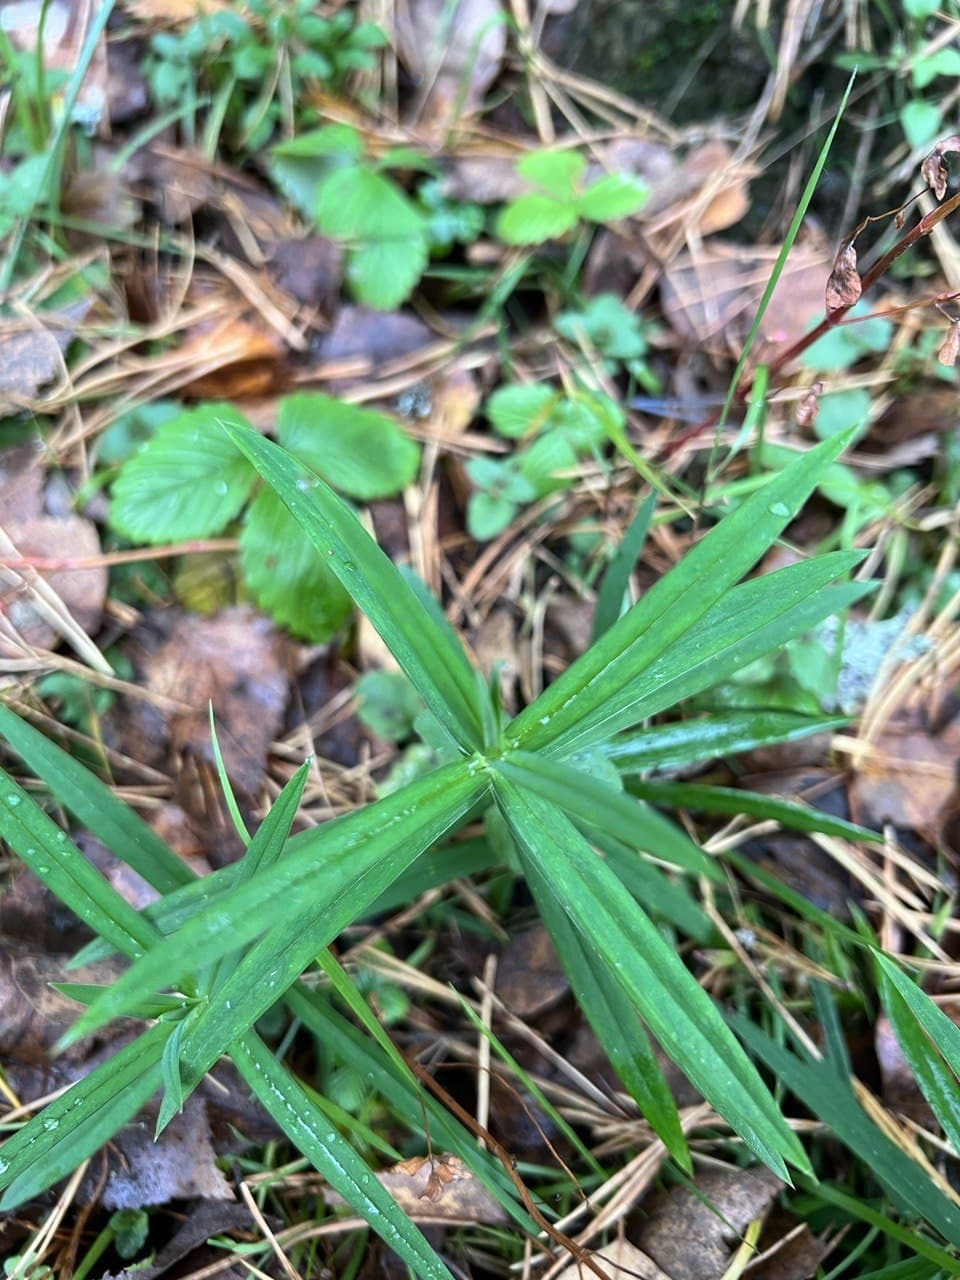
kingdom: Plantae
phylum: Tracheophyta
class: Magnoliopsida
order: Caryophyllales
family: Caryophyllaceae
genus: Rabelera
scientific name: Rabelera holostea
